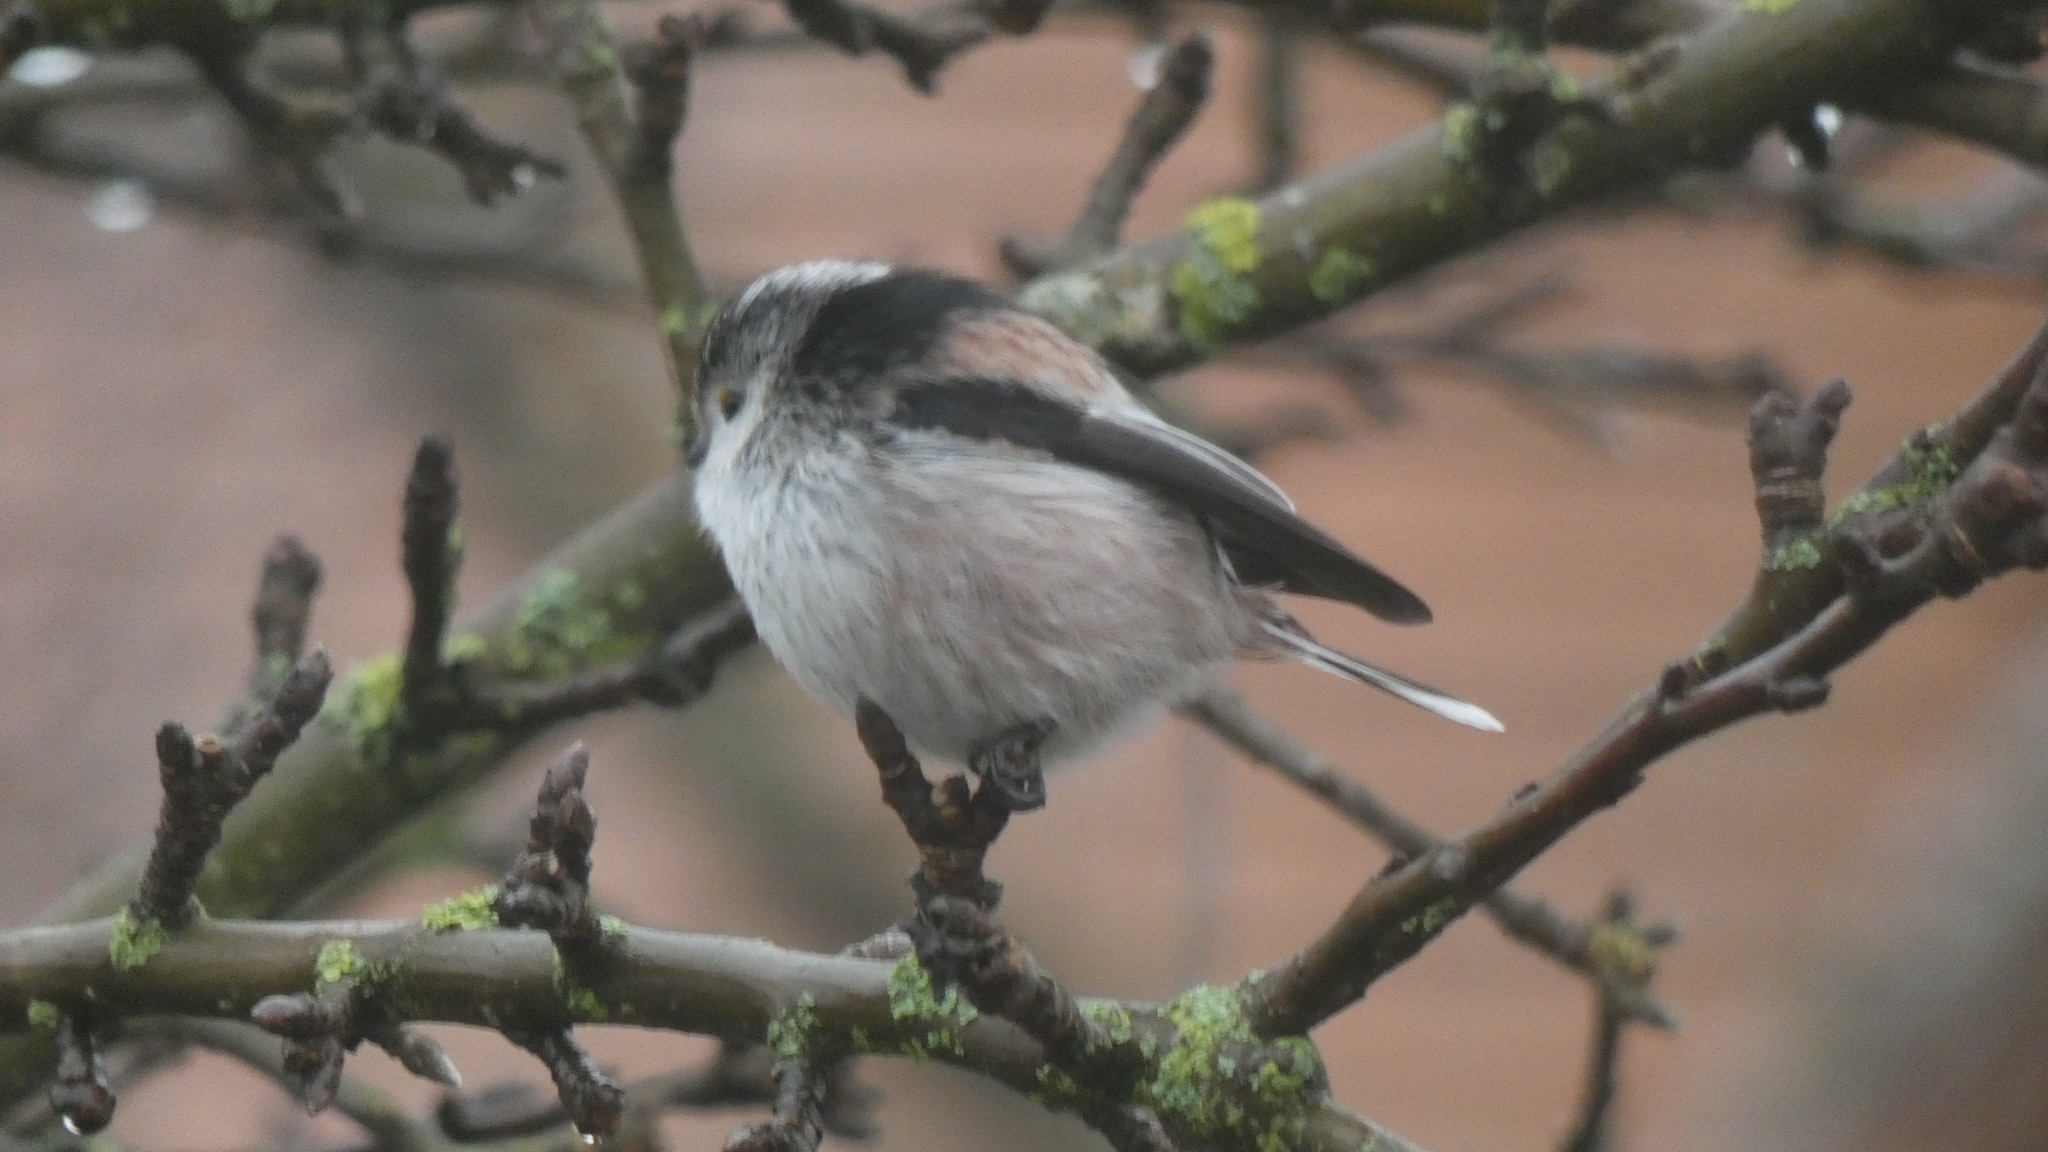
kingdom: Animalia
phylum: Chordata
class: Aves
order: Passeriformes
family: Aegithalidae
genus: Aegithalos
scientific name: Aegithalos caudatus
